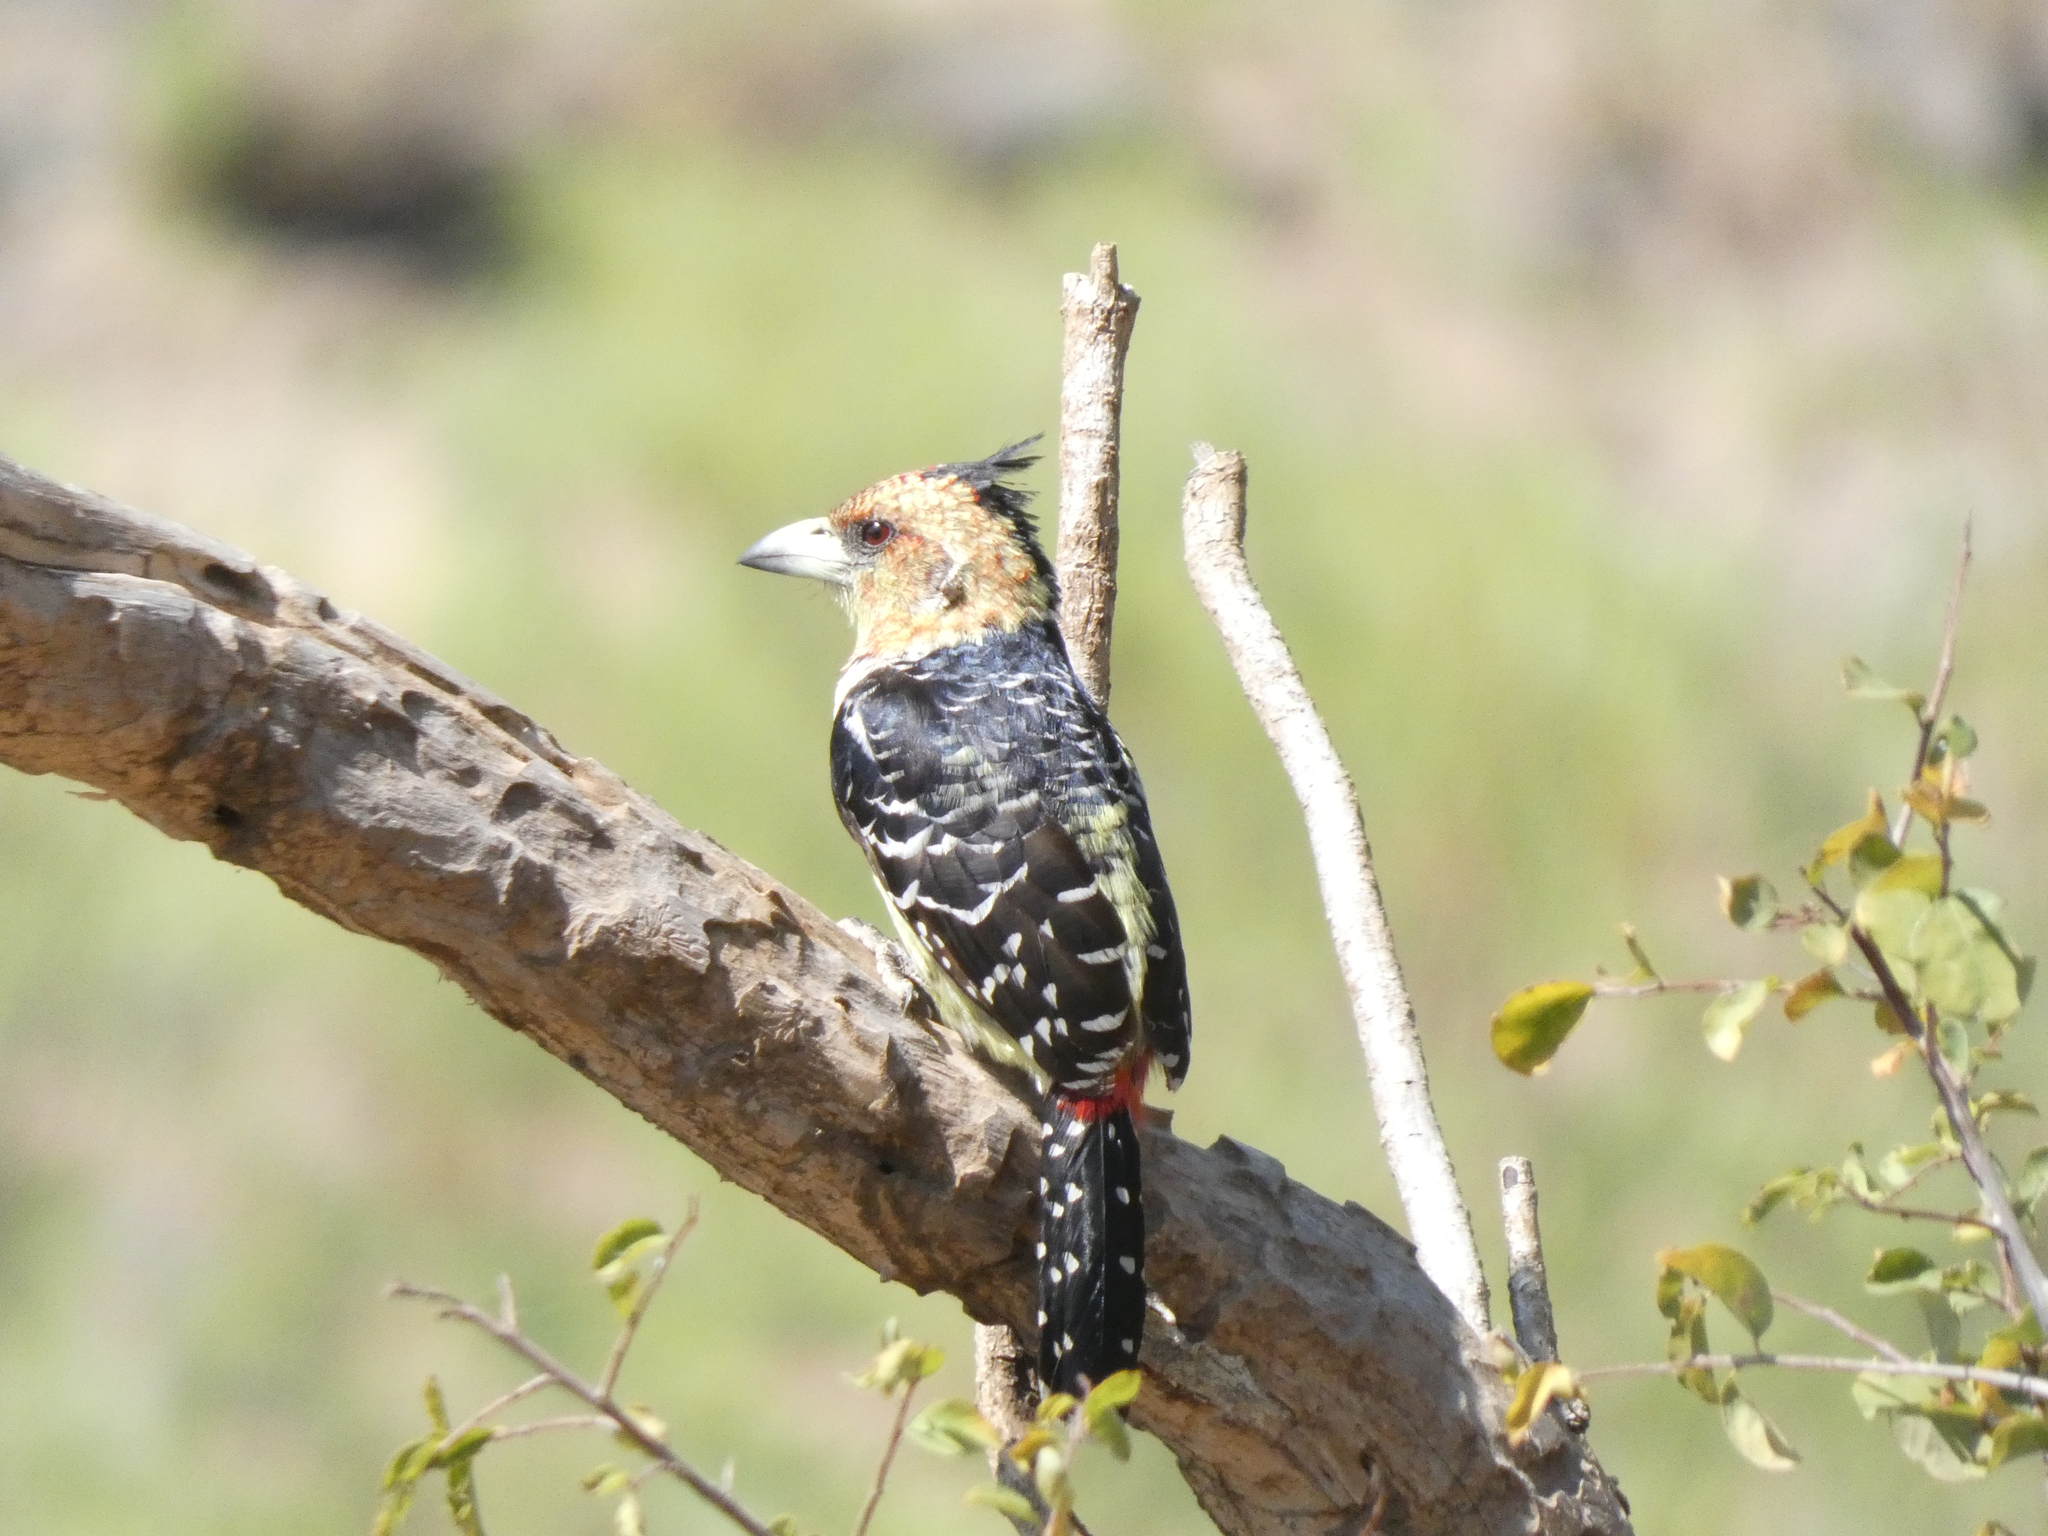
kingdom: Animalia
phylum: Chordata
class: Aves
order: Piciformes
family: Lybiidae
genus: Trachyphonus
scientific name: Trachyphonus vaillantii
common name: Crested barbet
